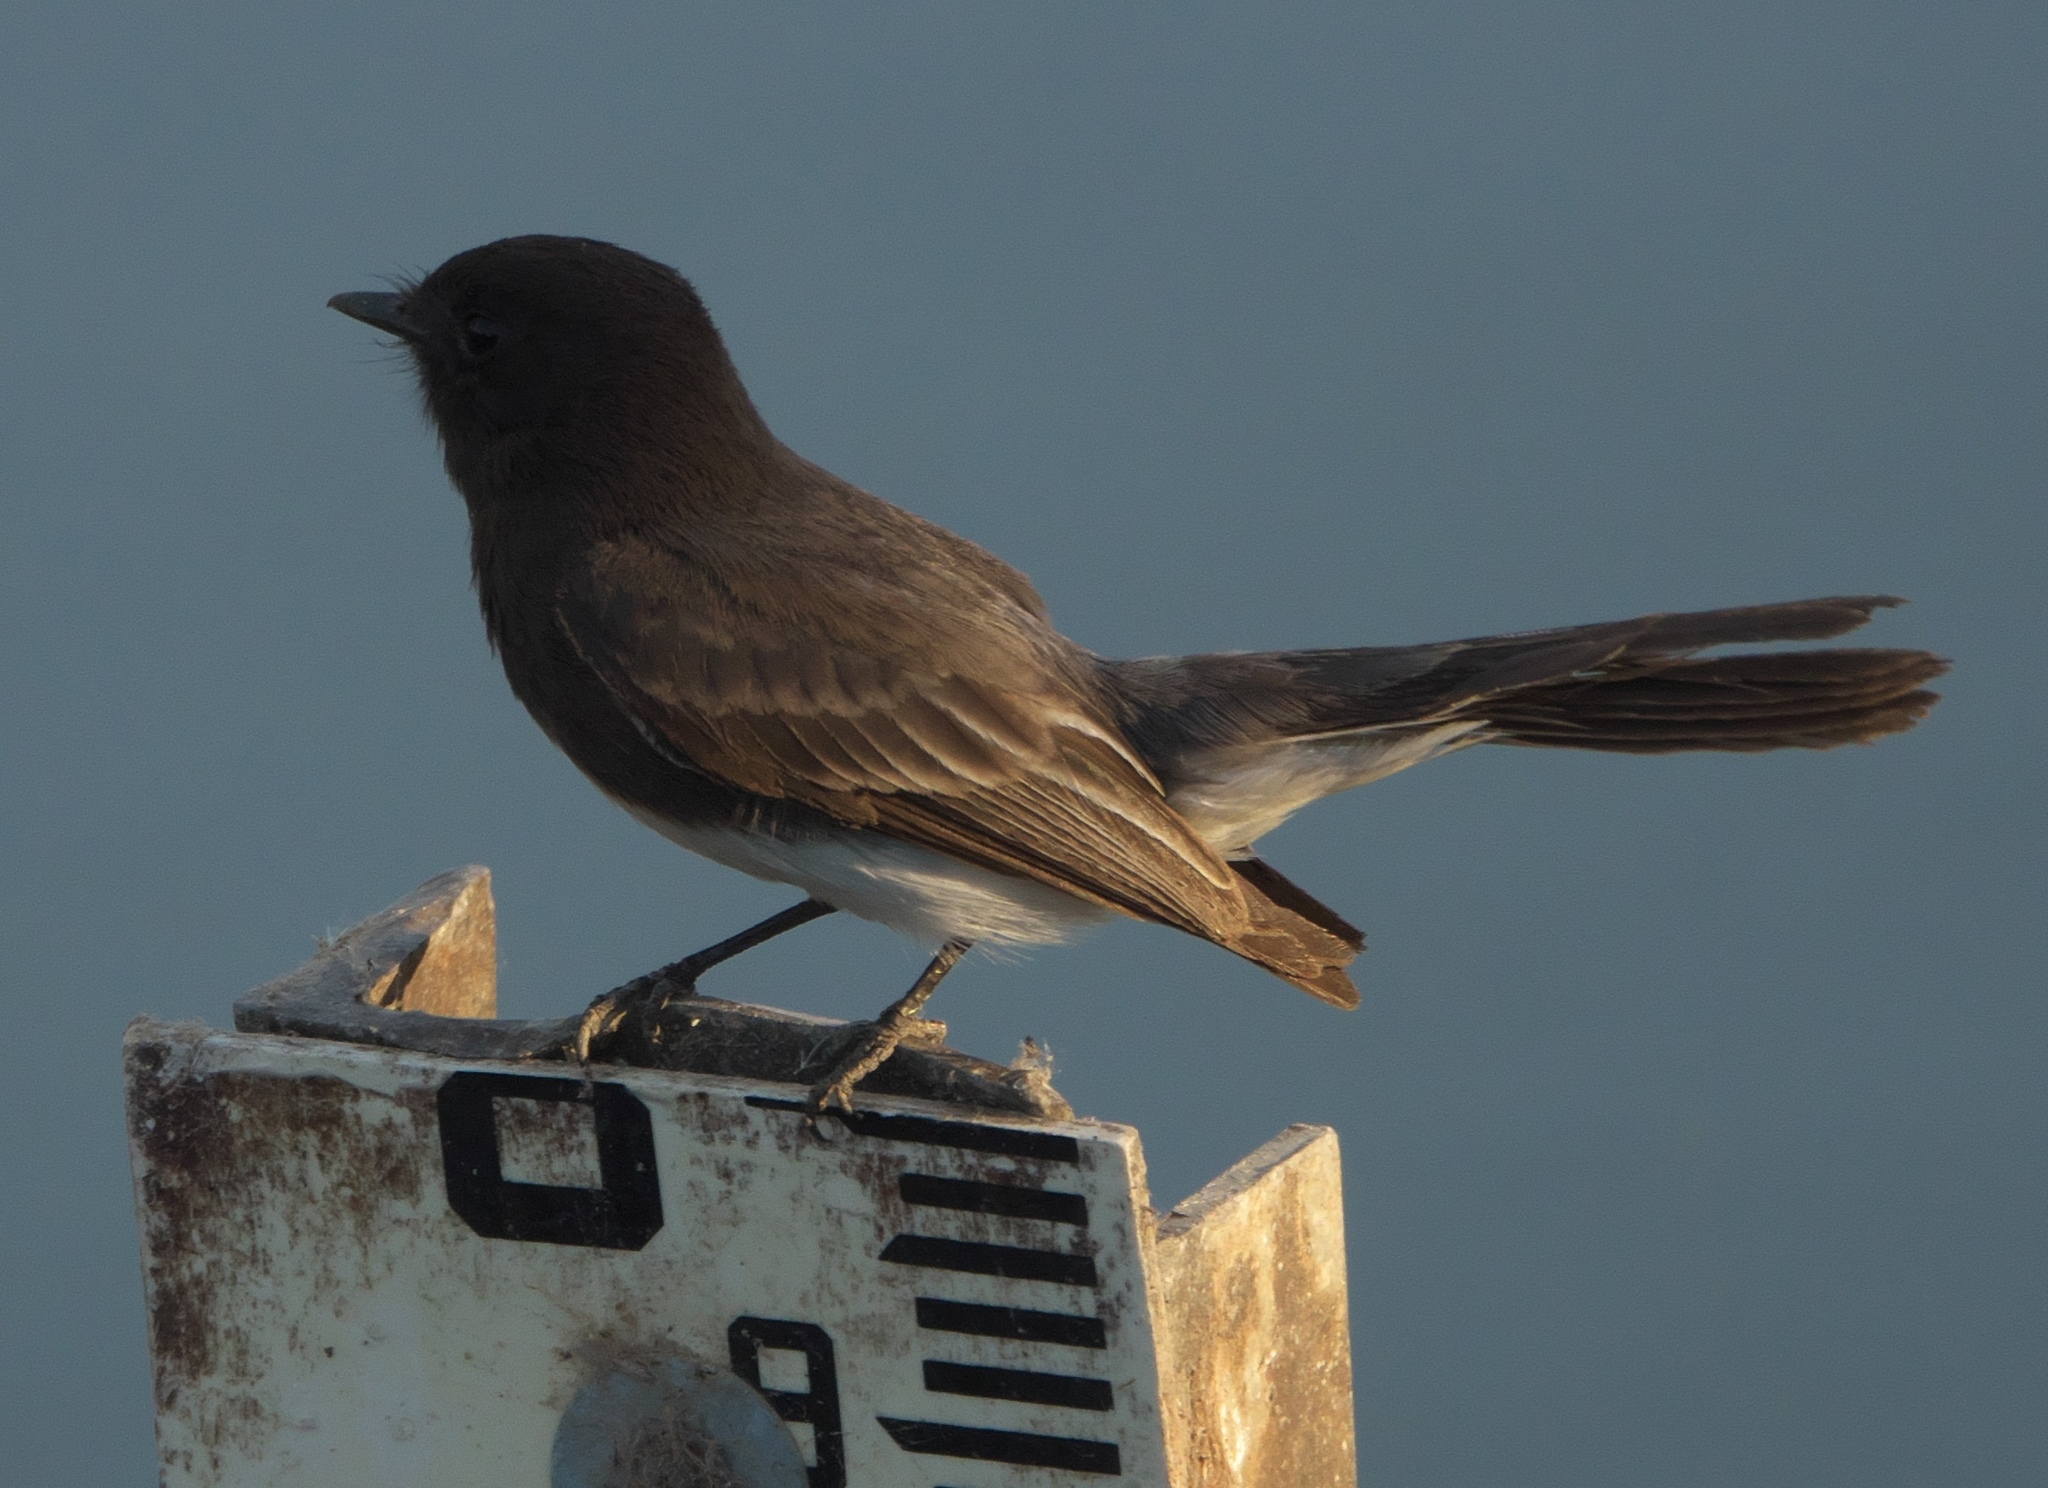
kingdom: Animalia
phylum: Chordata
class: Aves
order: Passeriformes
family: Tyrannidae
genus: Sayornis
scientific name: Sayornis nigricans
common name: Black phoebe
